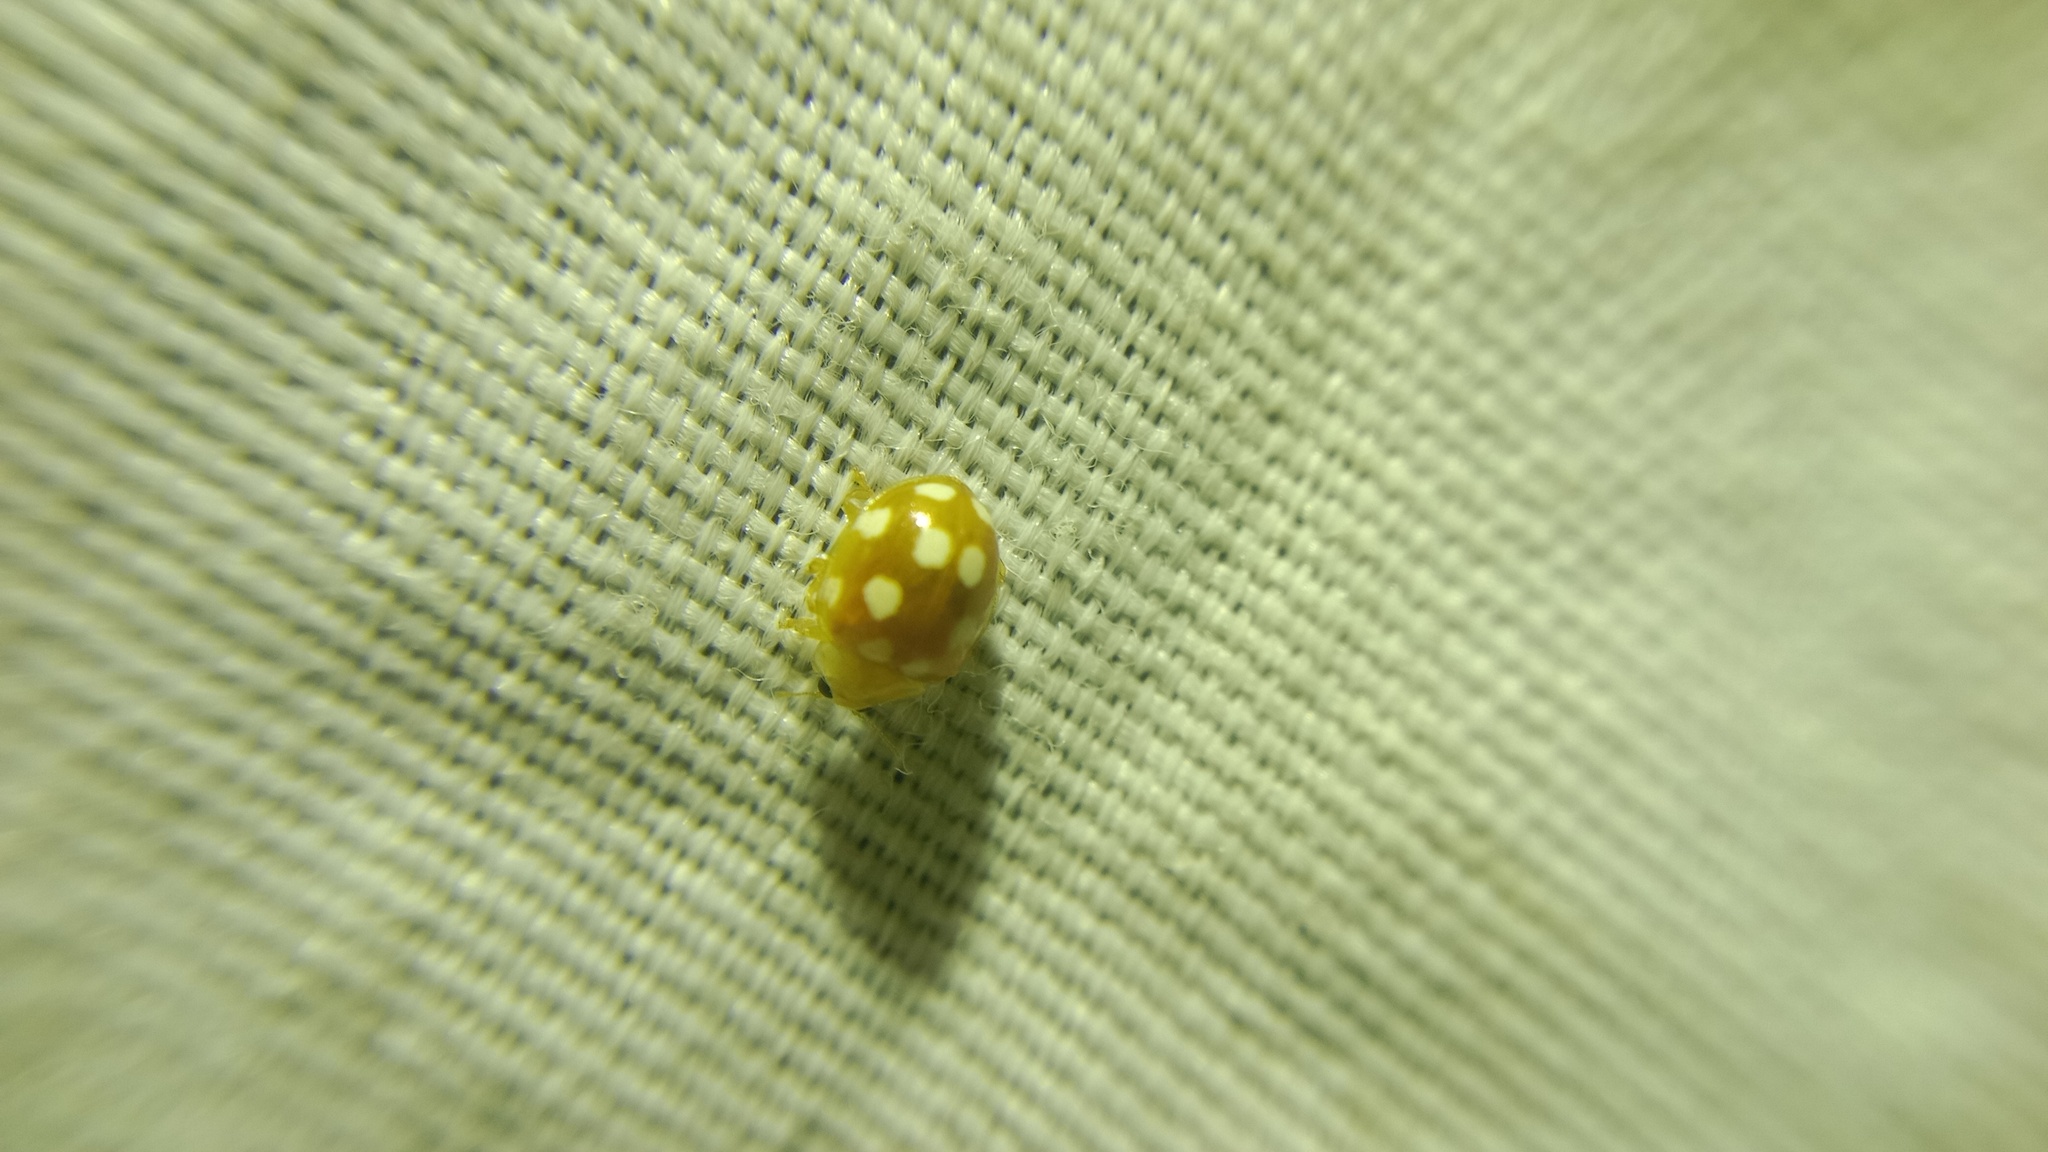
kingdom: Animalia
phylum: Arthropoda
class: Insecta
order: Coleoptera
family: Coccinellidae
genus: Vibidia
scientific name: Vibidia duodecimguttata
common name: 12-spot ladybird
